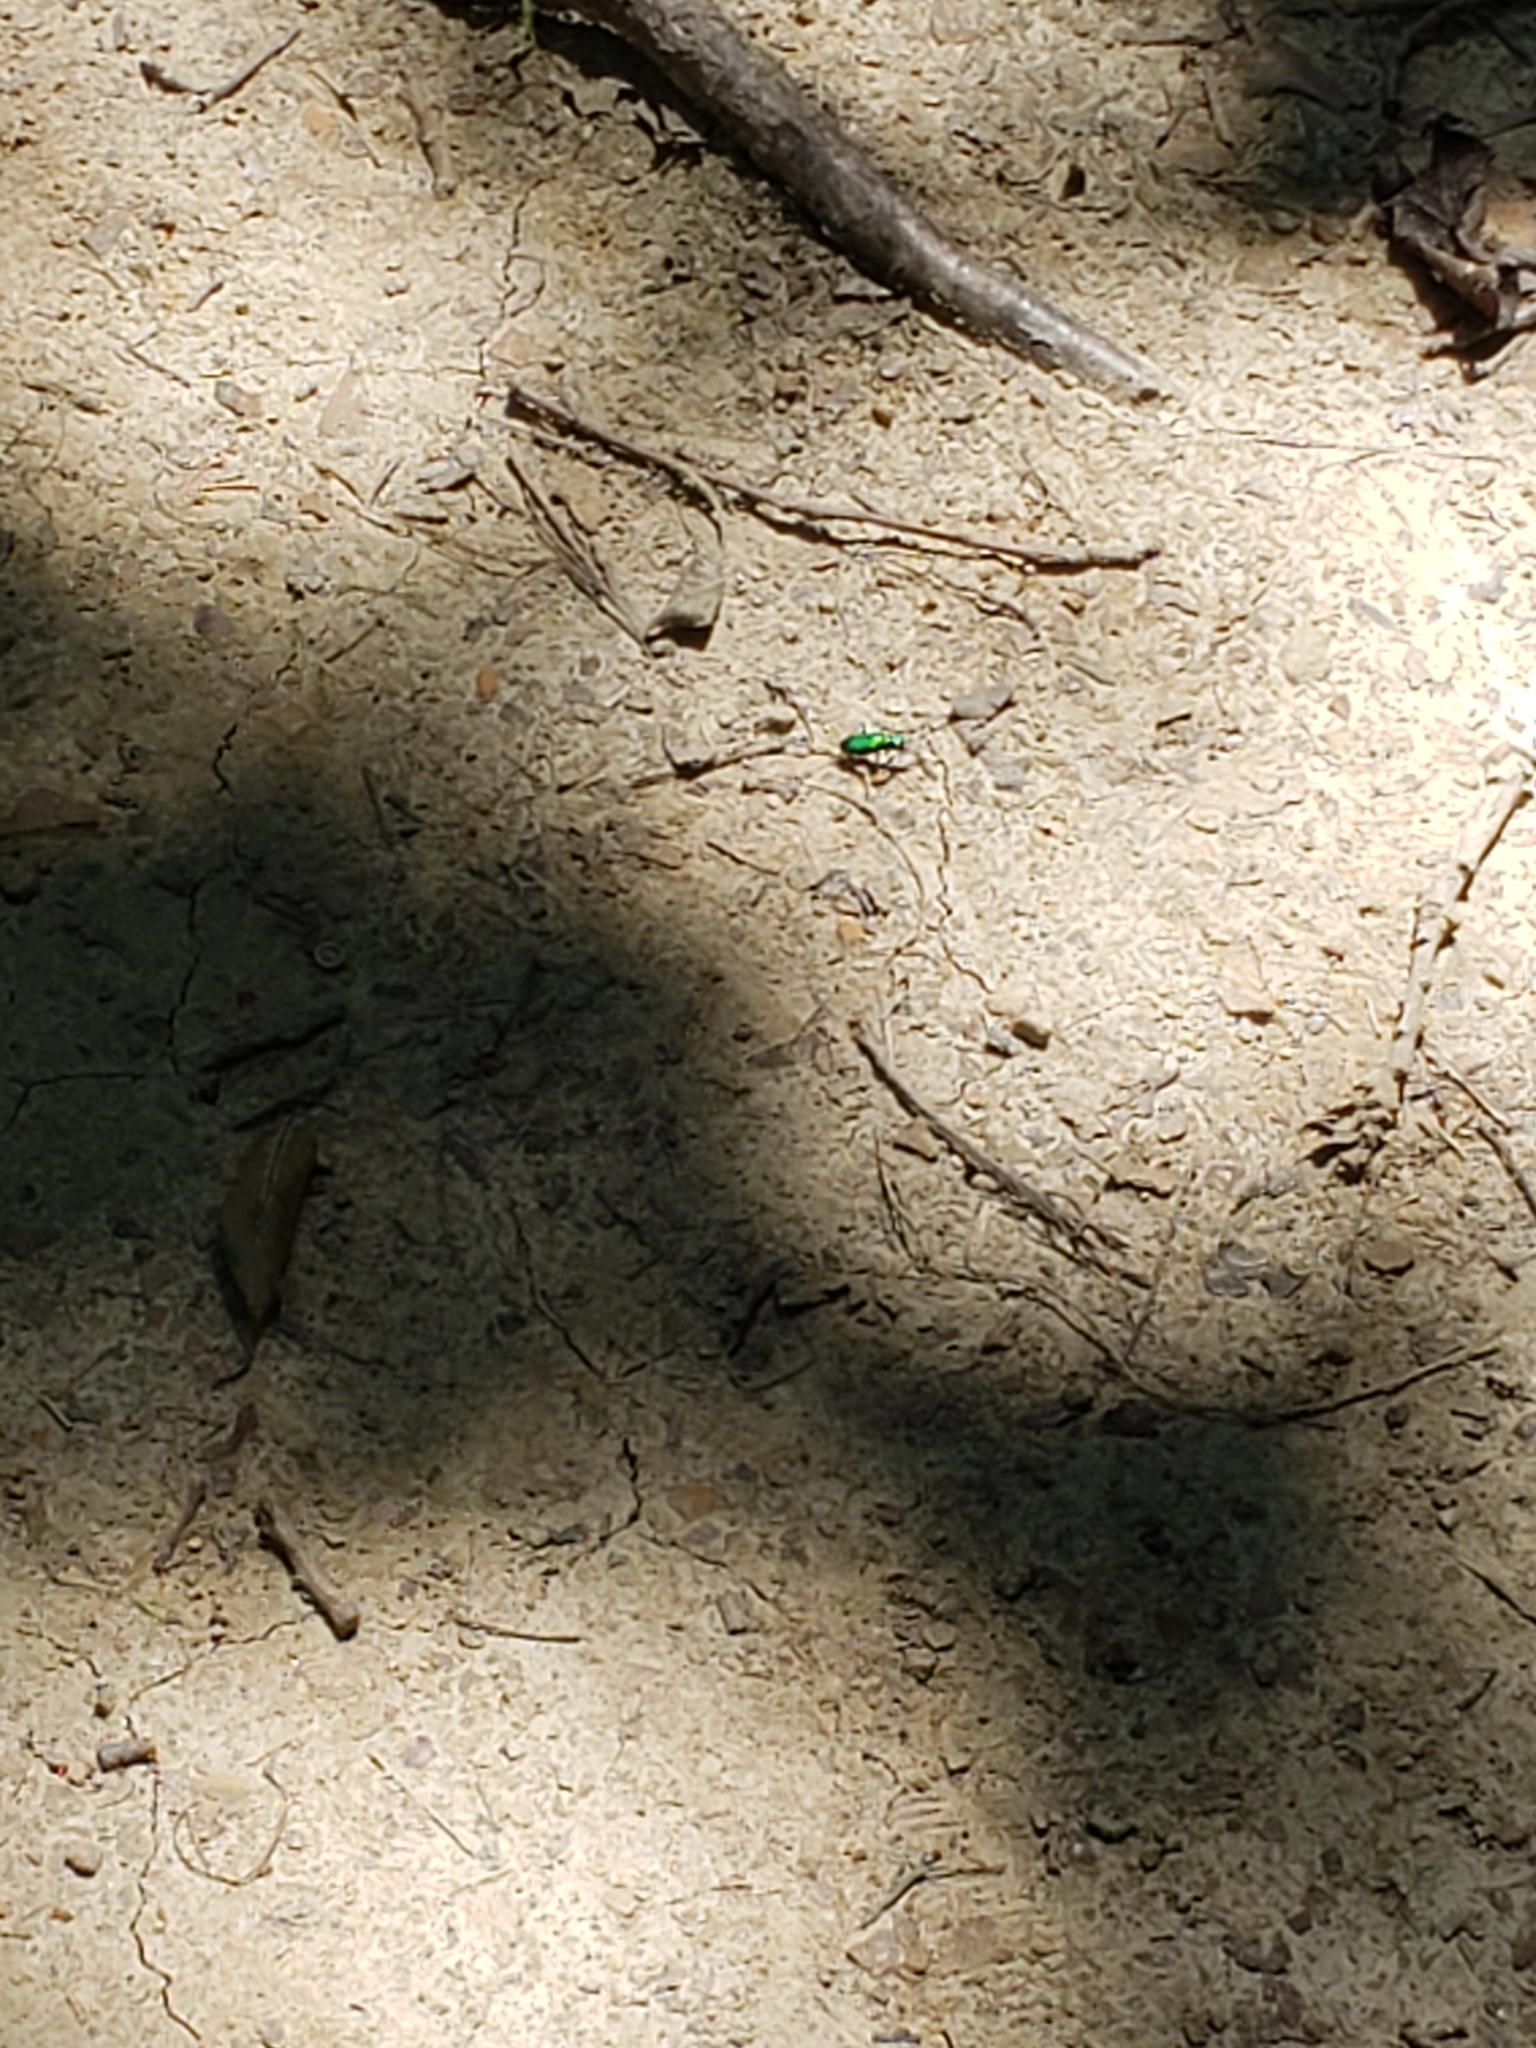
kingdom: Animalia
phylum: Arthropoda
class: Insecta
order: Coleoptera
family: Carabidae
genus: Cicindela
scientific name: Cicindela sexguttata
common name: Six-spotted tiger beetle
